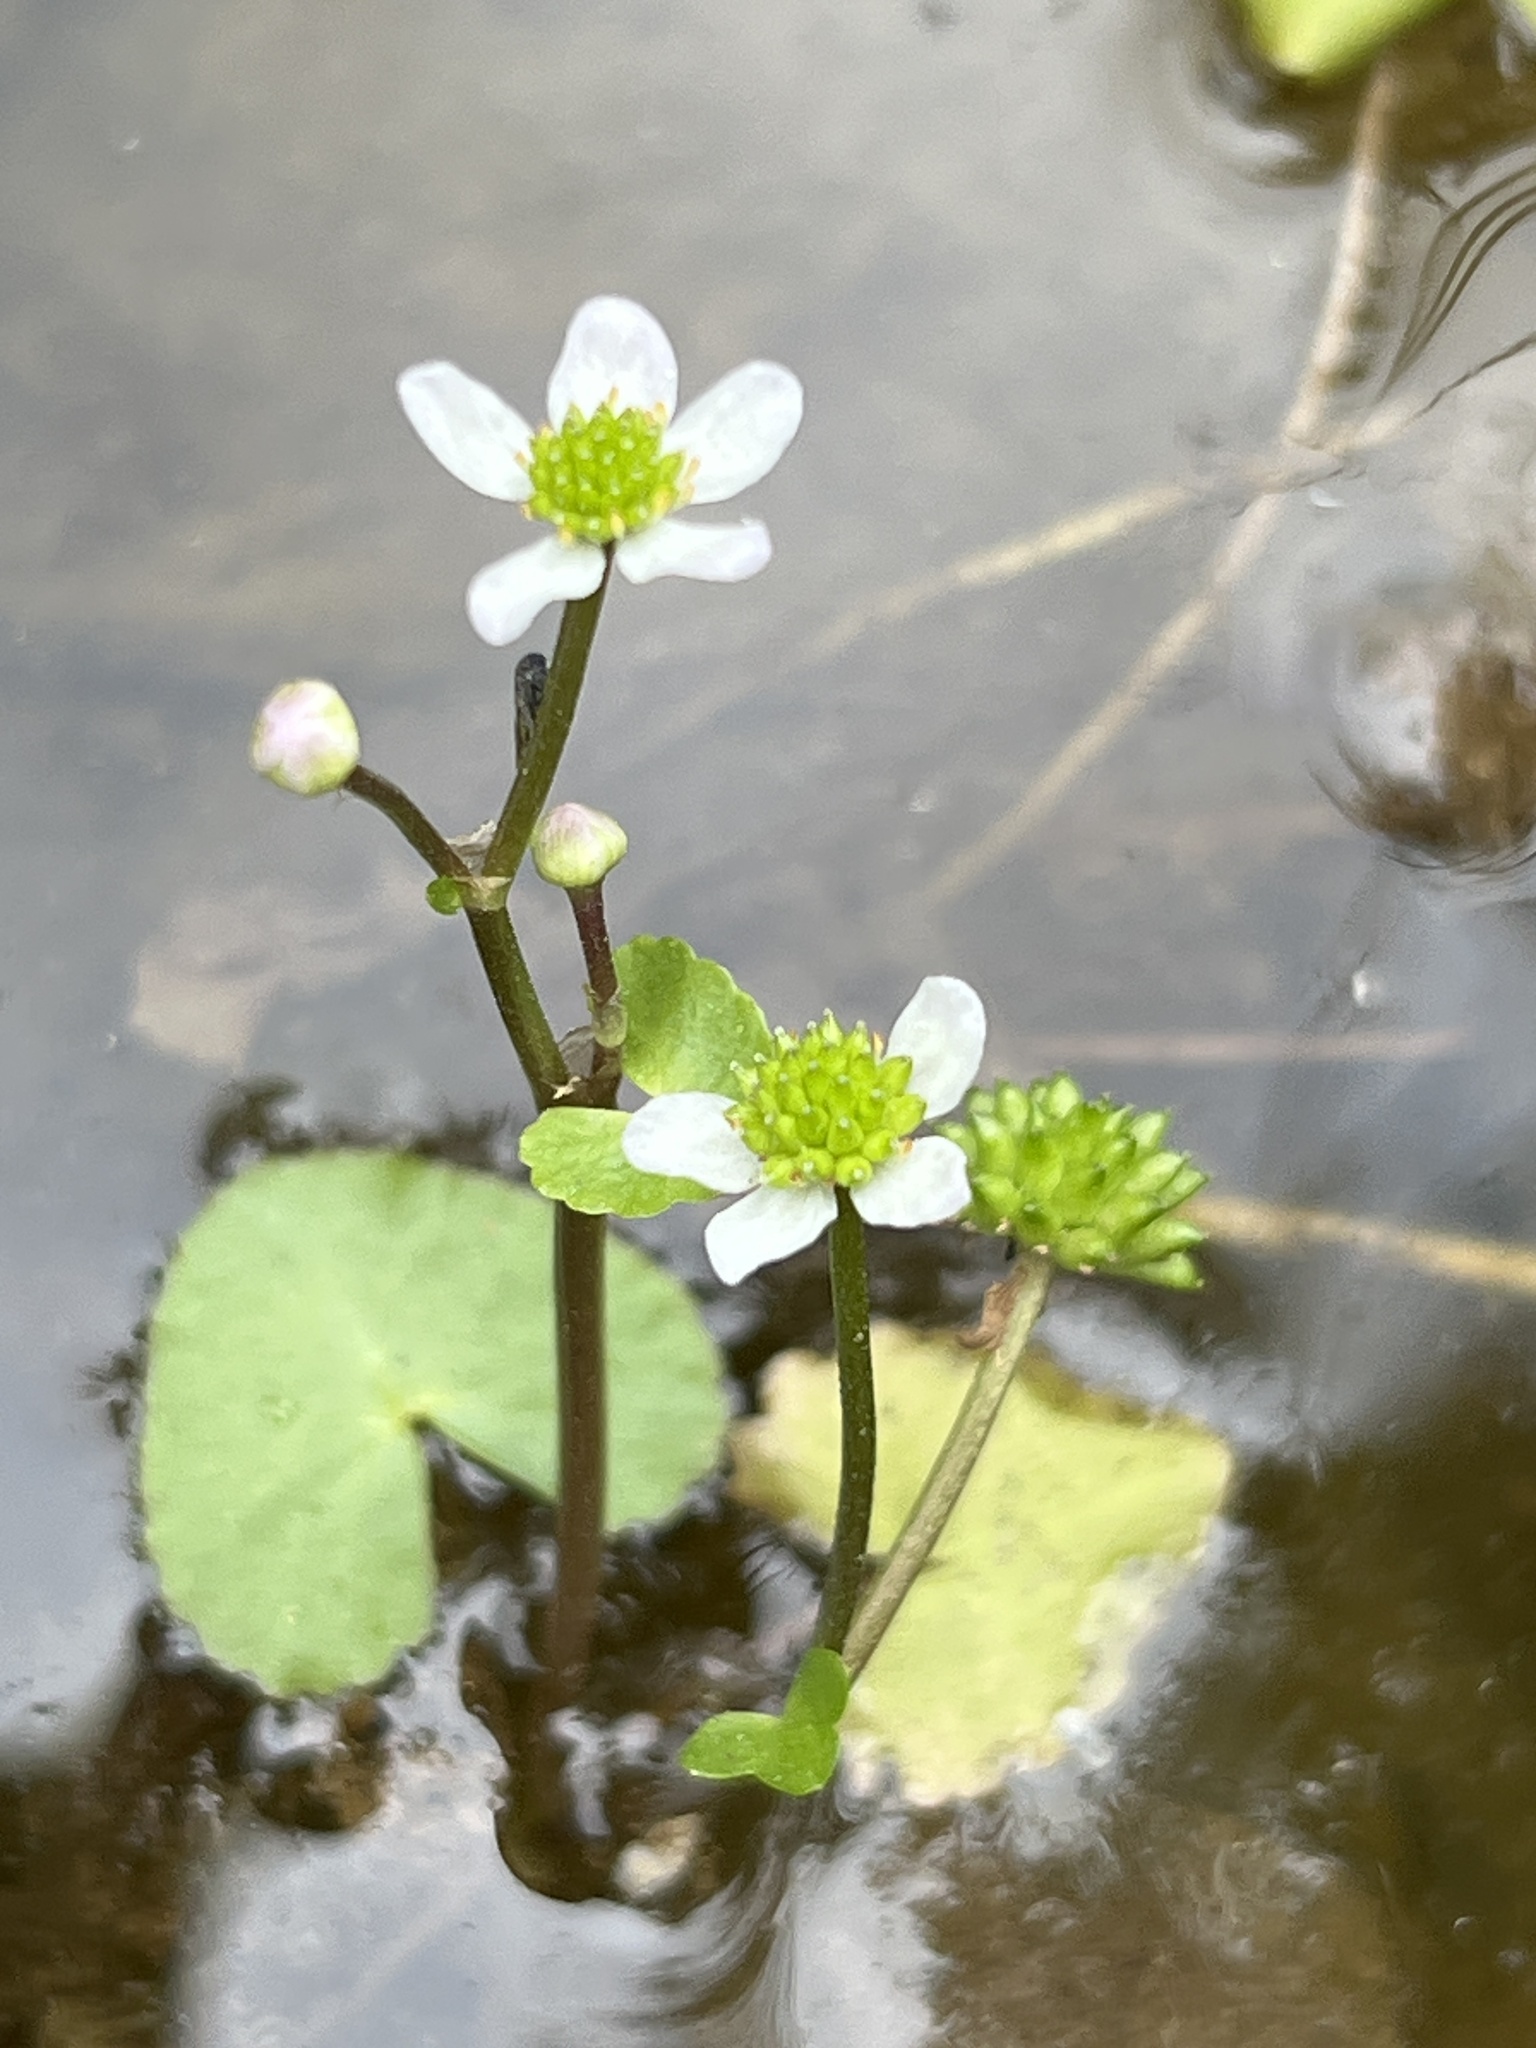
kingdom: Plantae
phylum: Tracheophyta
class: Magnoliopsida
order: Ranunculales
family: Ranunculaceae
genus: Caltha
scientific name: Caltha natans
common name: Floating marsh marigold
